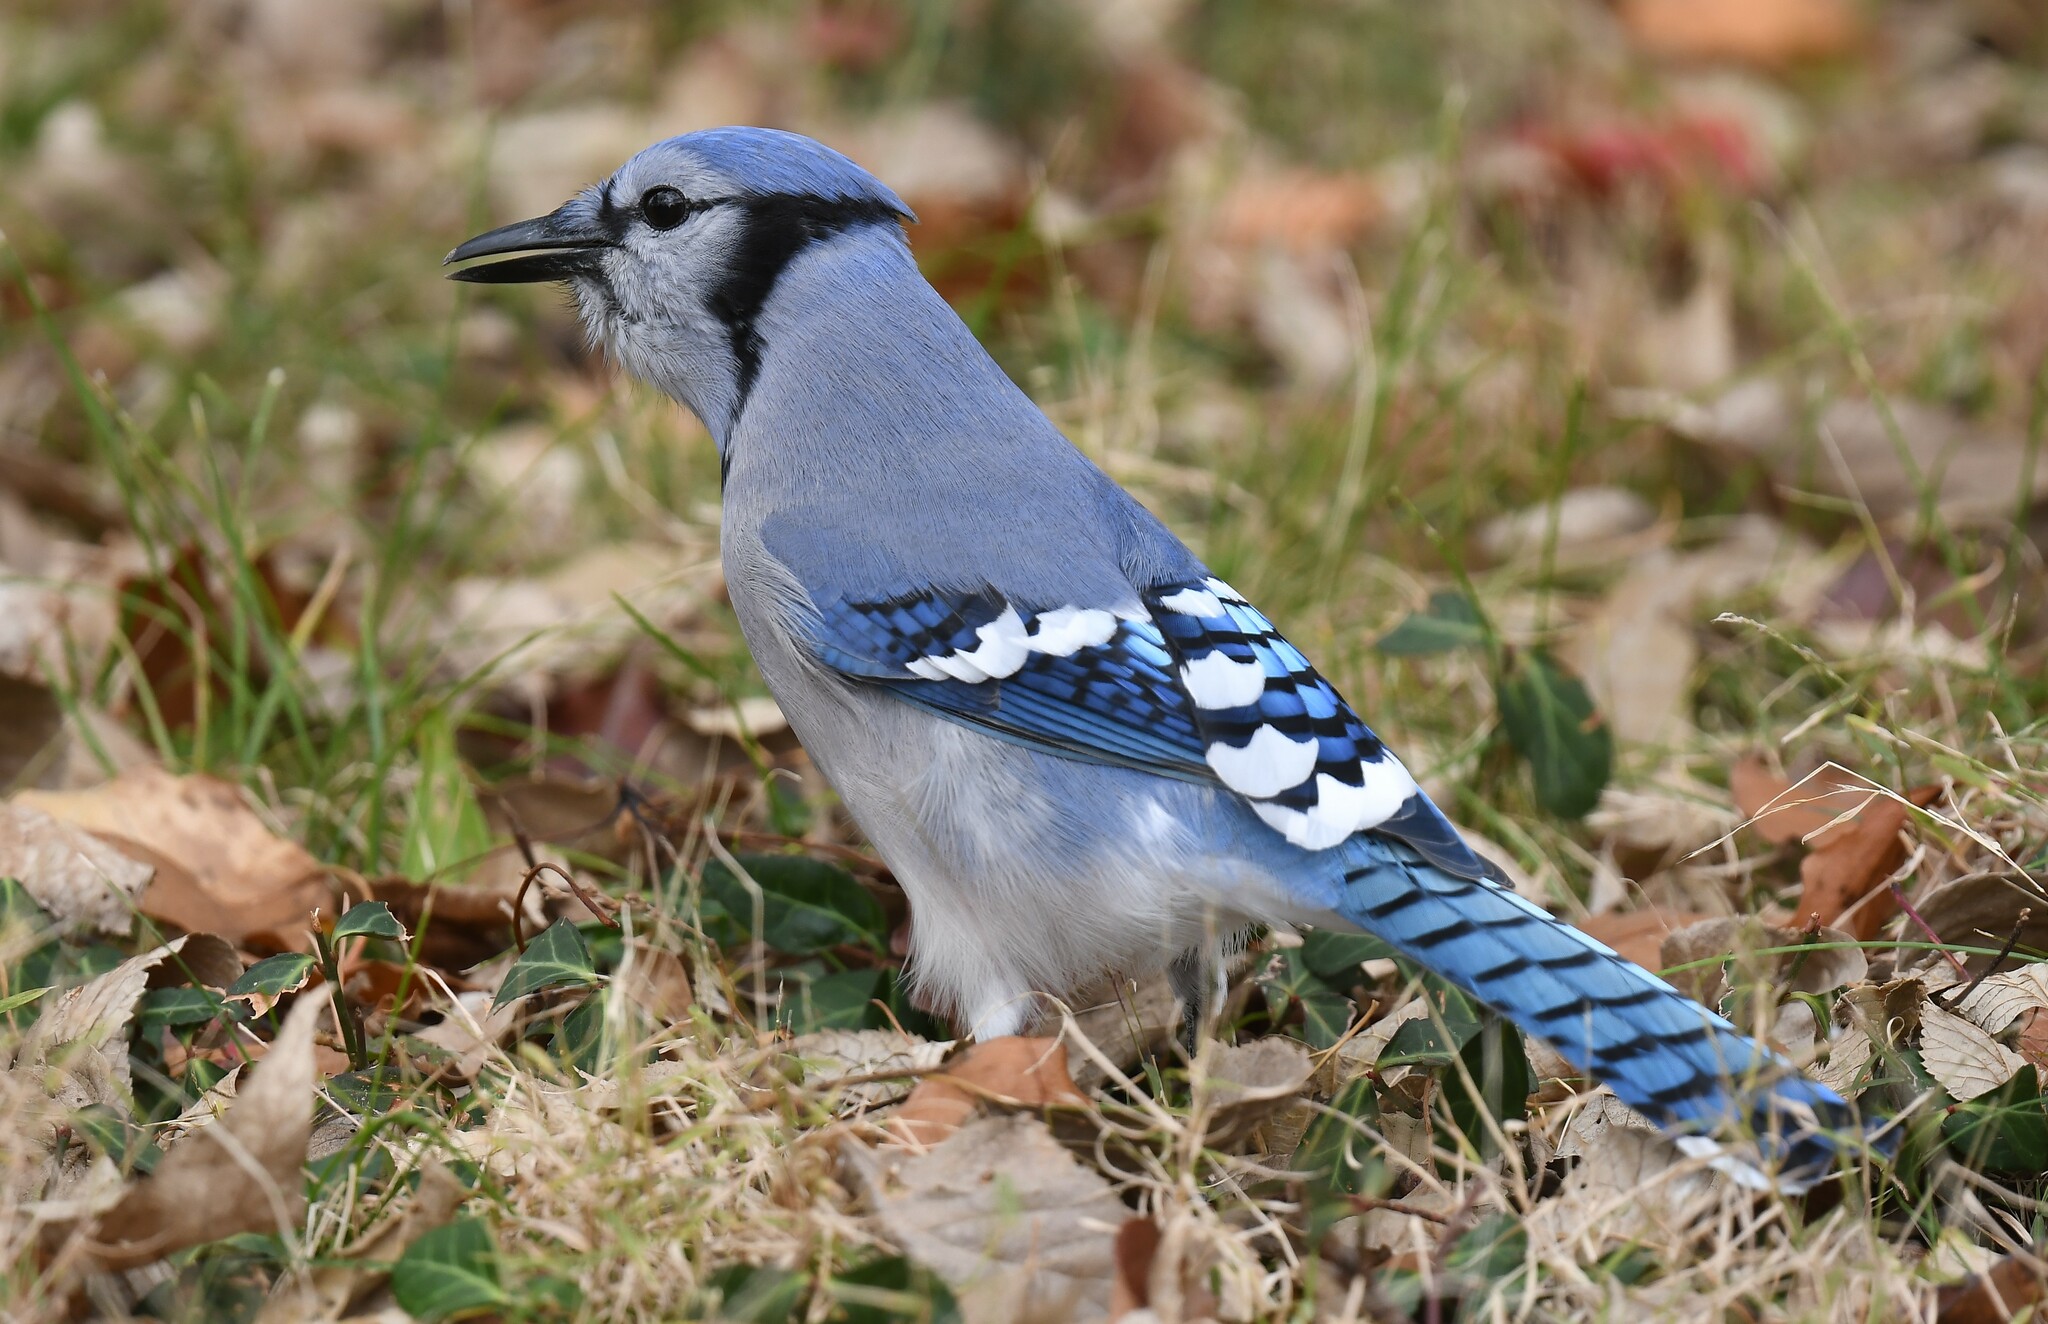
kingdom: Animalia
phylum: Chordata
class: Aves
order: Passeriformes
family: Corvidae
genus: Cyanocitta
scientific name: Cyanocitta cristata
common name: Blue jay
